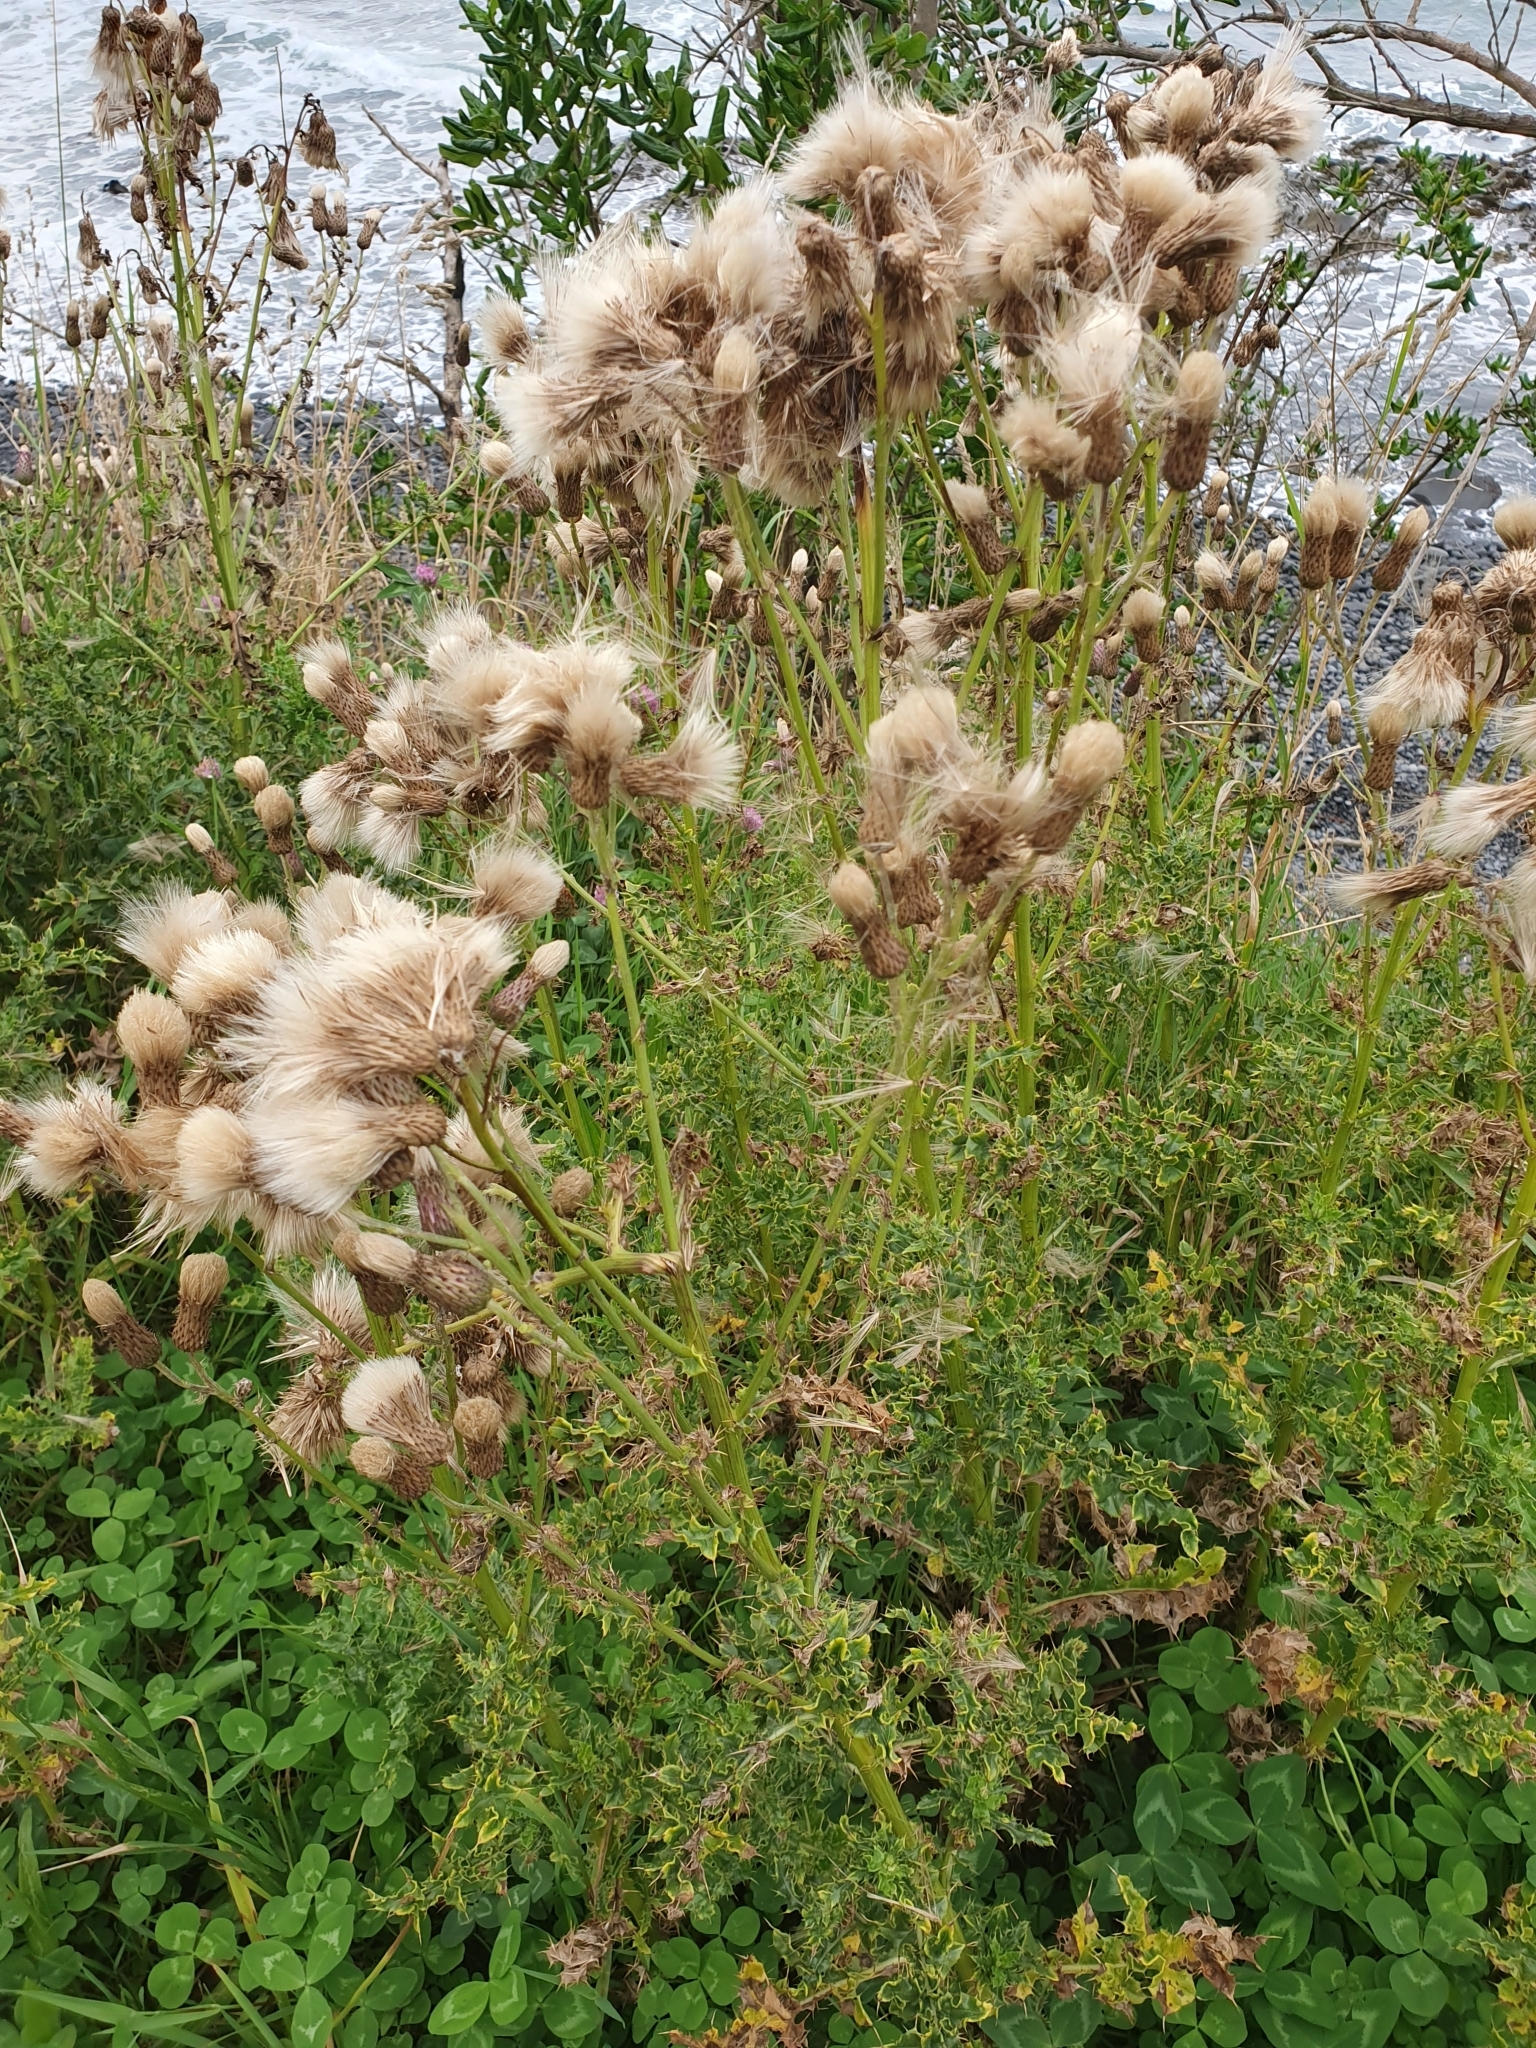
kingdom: Plantae
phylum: Tracheophyta
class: Magnoliopsida
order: Asterales
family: Asteraceae
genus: Cirsium
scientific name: Cirsium arvense
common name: Creeping thistle
